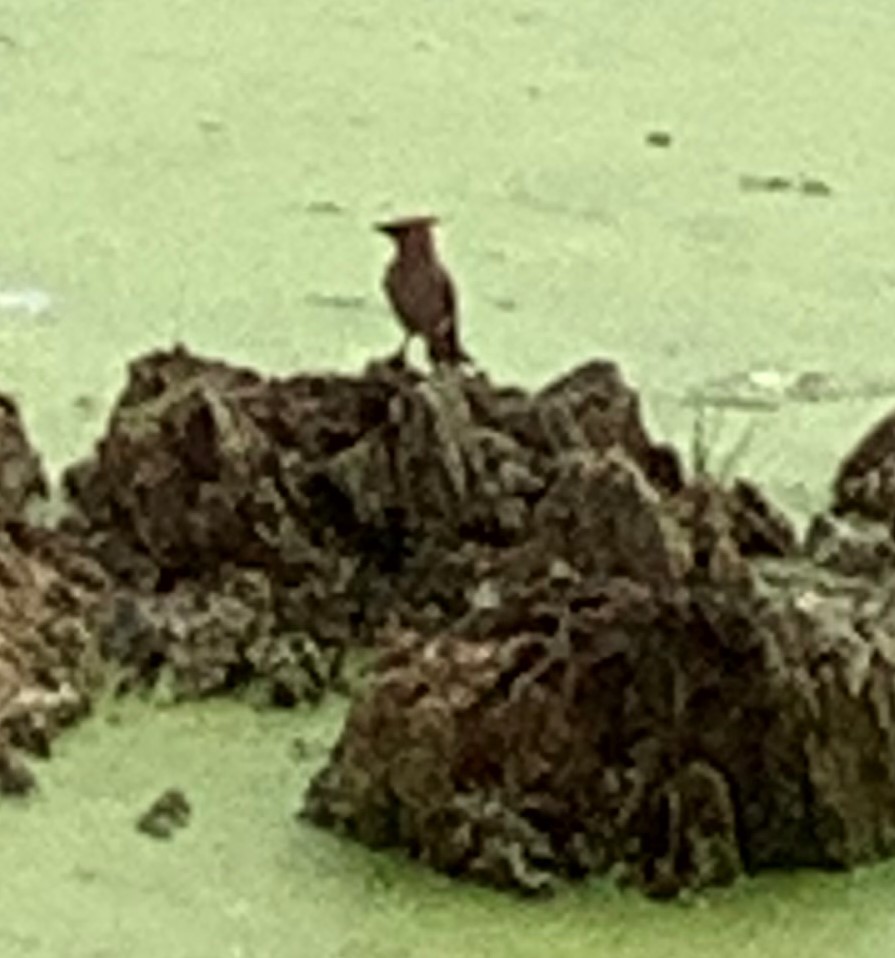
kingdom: Animalia
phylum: Chordata
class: Aves
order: Passeriformes
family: Bombycillidae
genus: Bombycilla
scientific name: Bombycilla cedrorum
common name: Cedar waxwing
